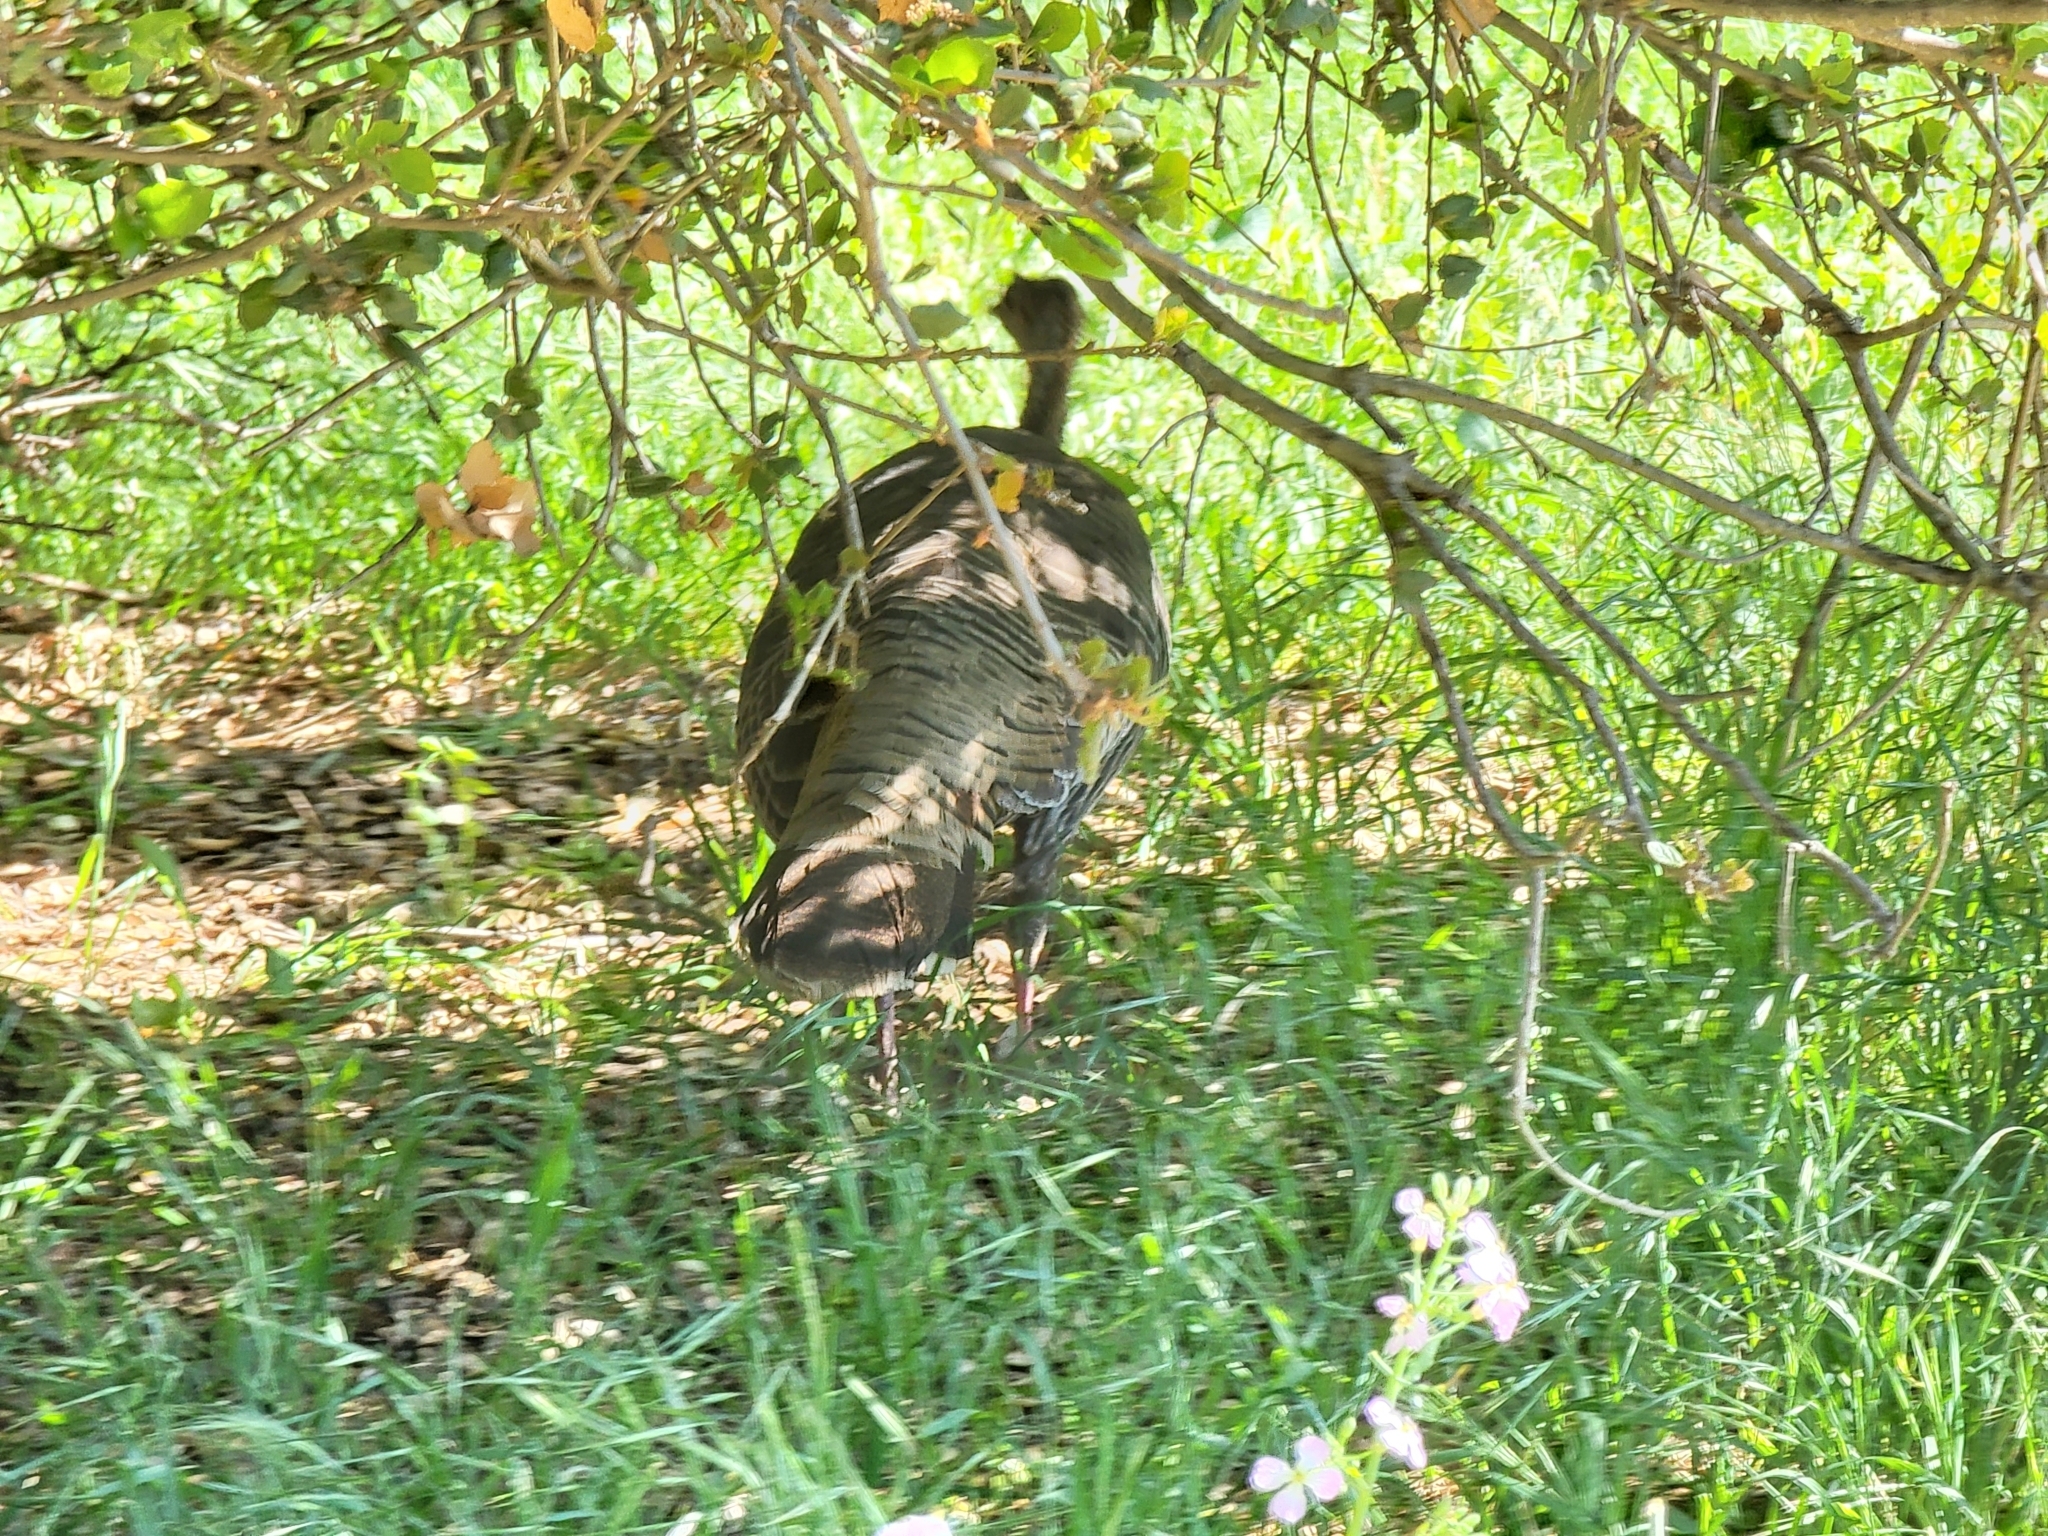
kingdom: Animalia
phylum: Chordata
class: Aves
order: Galliformes
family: Phasianidae
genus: Meleagris
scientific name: Meleagris gallopavo
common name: Wild turkey
